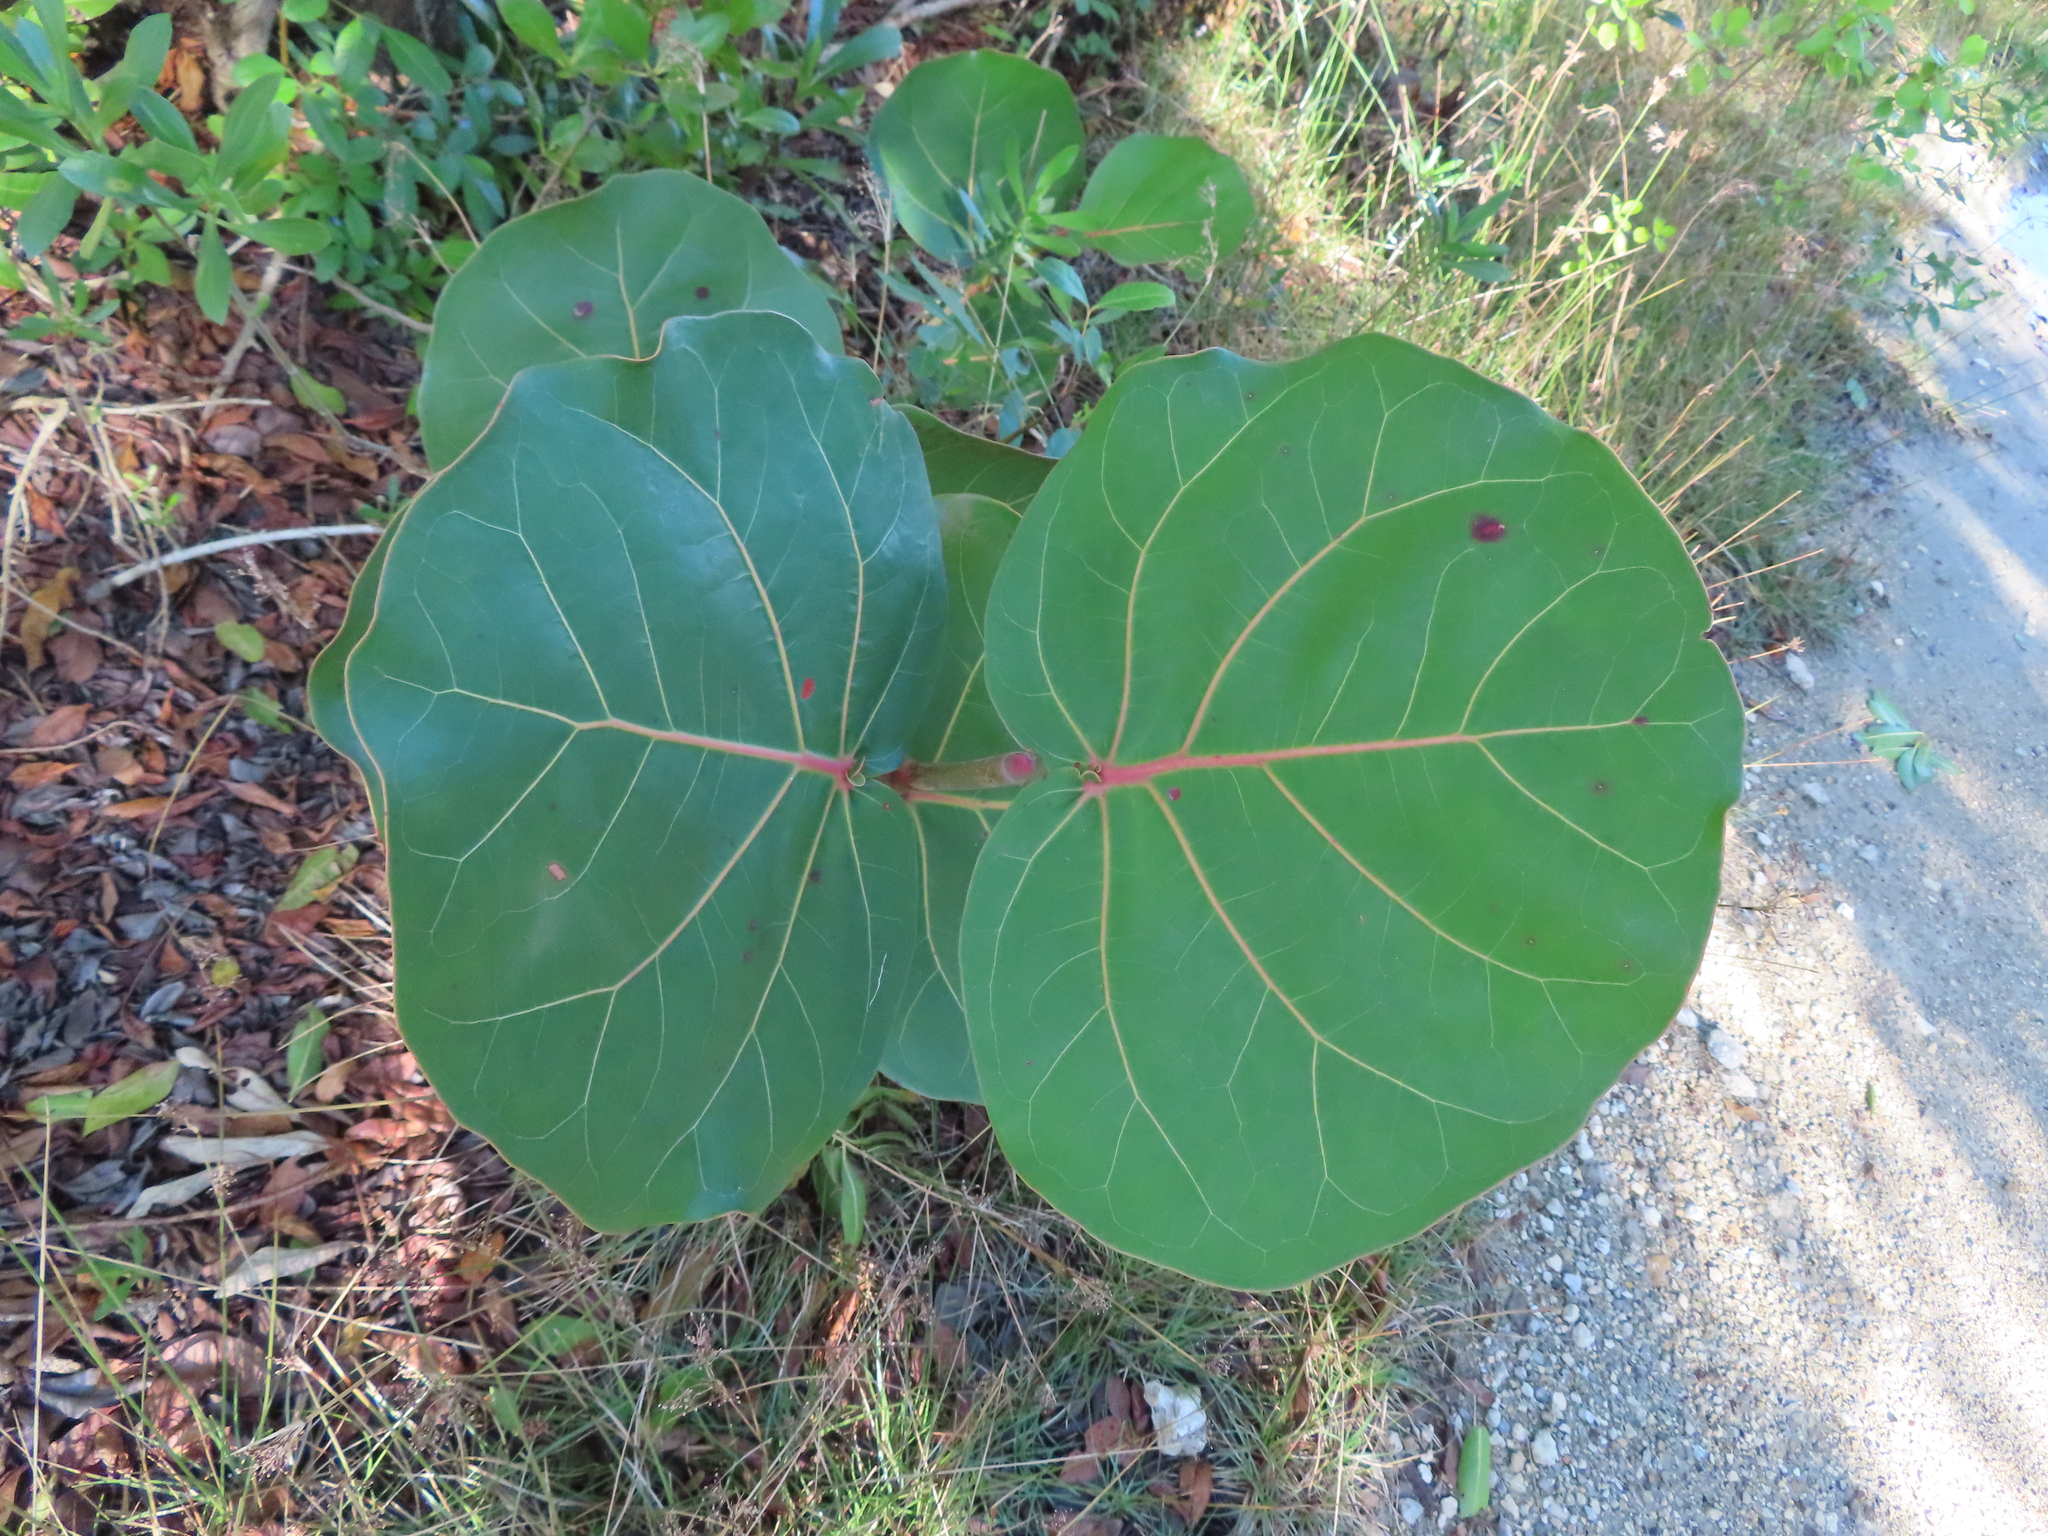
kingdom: Plantae
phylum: Tracheophyta
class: Magnoliopsida
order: Caryophyllales
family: Polygonaceae
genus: Coccoloba
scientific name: Coccoloba uvifera
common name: Seagrape
